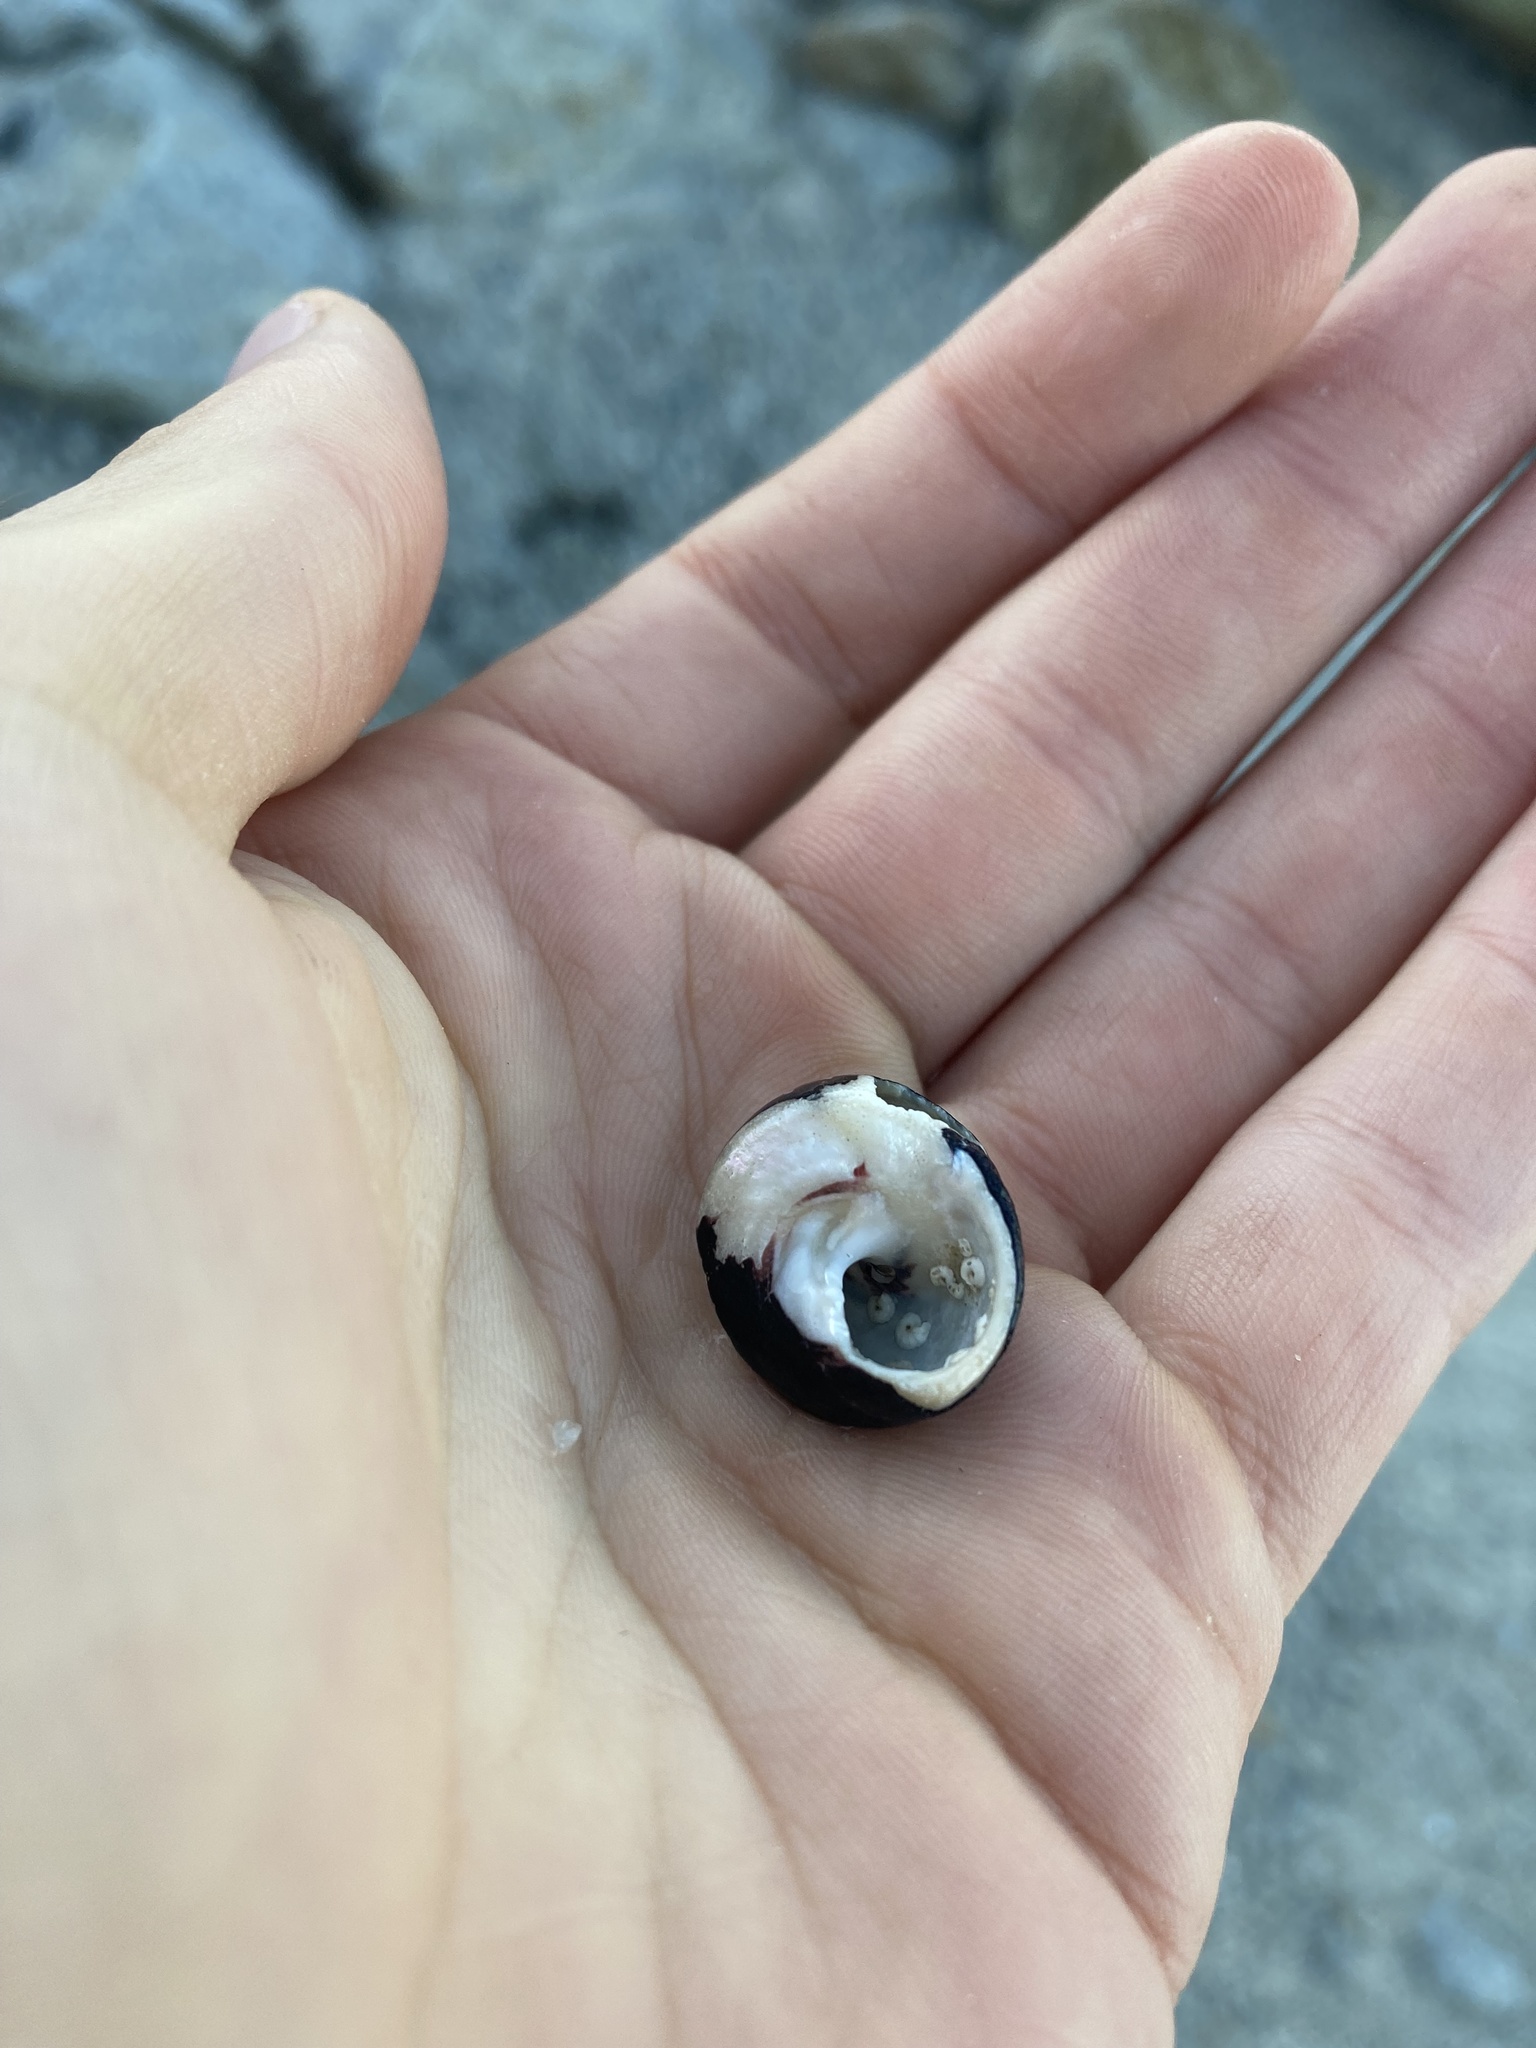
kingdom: Animalia
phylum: Mollusca
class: Gastropoda
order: Trochida
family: Tegulidae
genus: Tegula
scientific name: Tegula funebralis
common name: Black tegula
